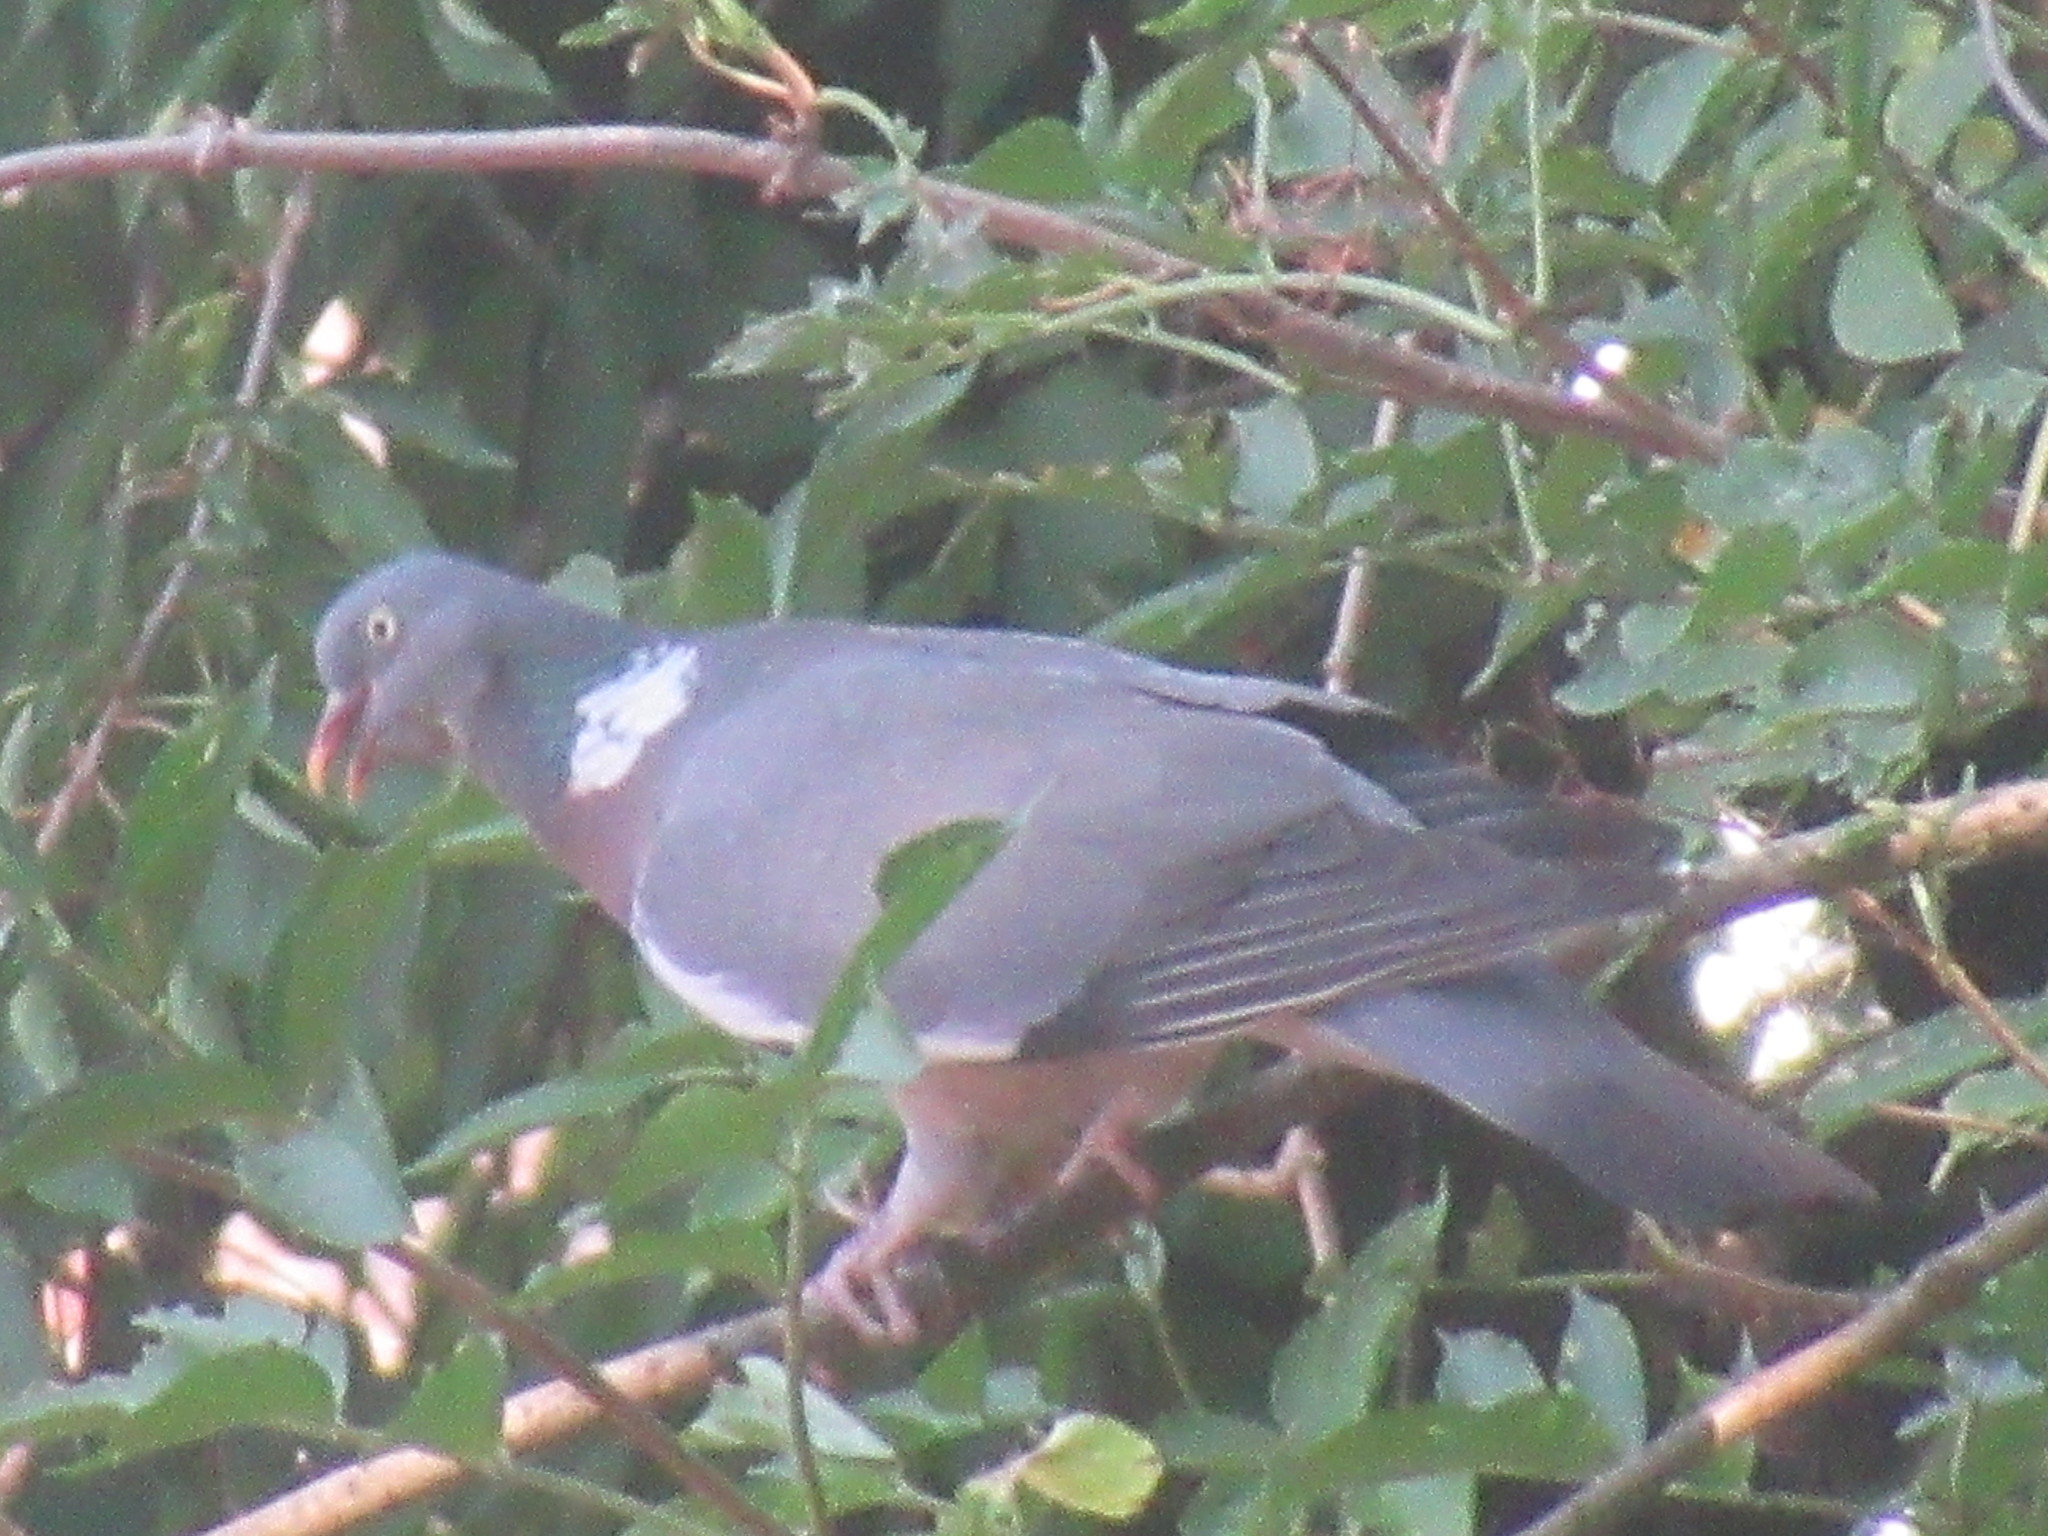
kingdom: Animalia
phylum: Chordata
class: Aves
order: Columbiformes
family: Columbidae
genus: Columba
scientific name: Columba palumbus
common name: Common wood pigeon
